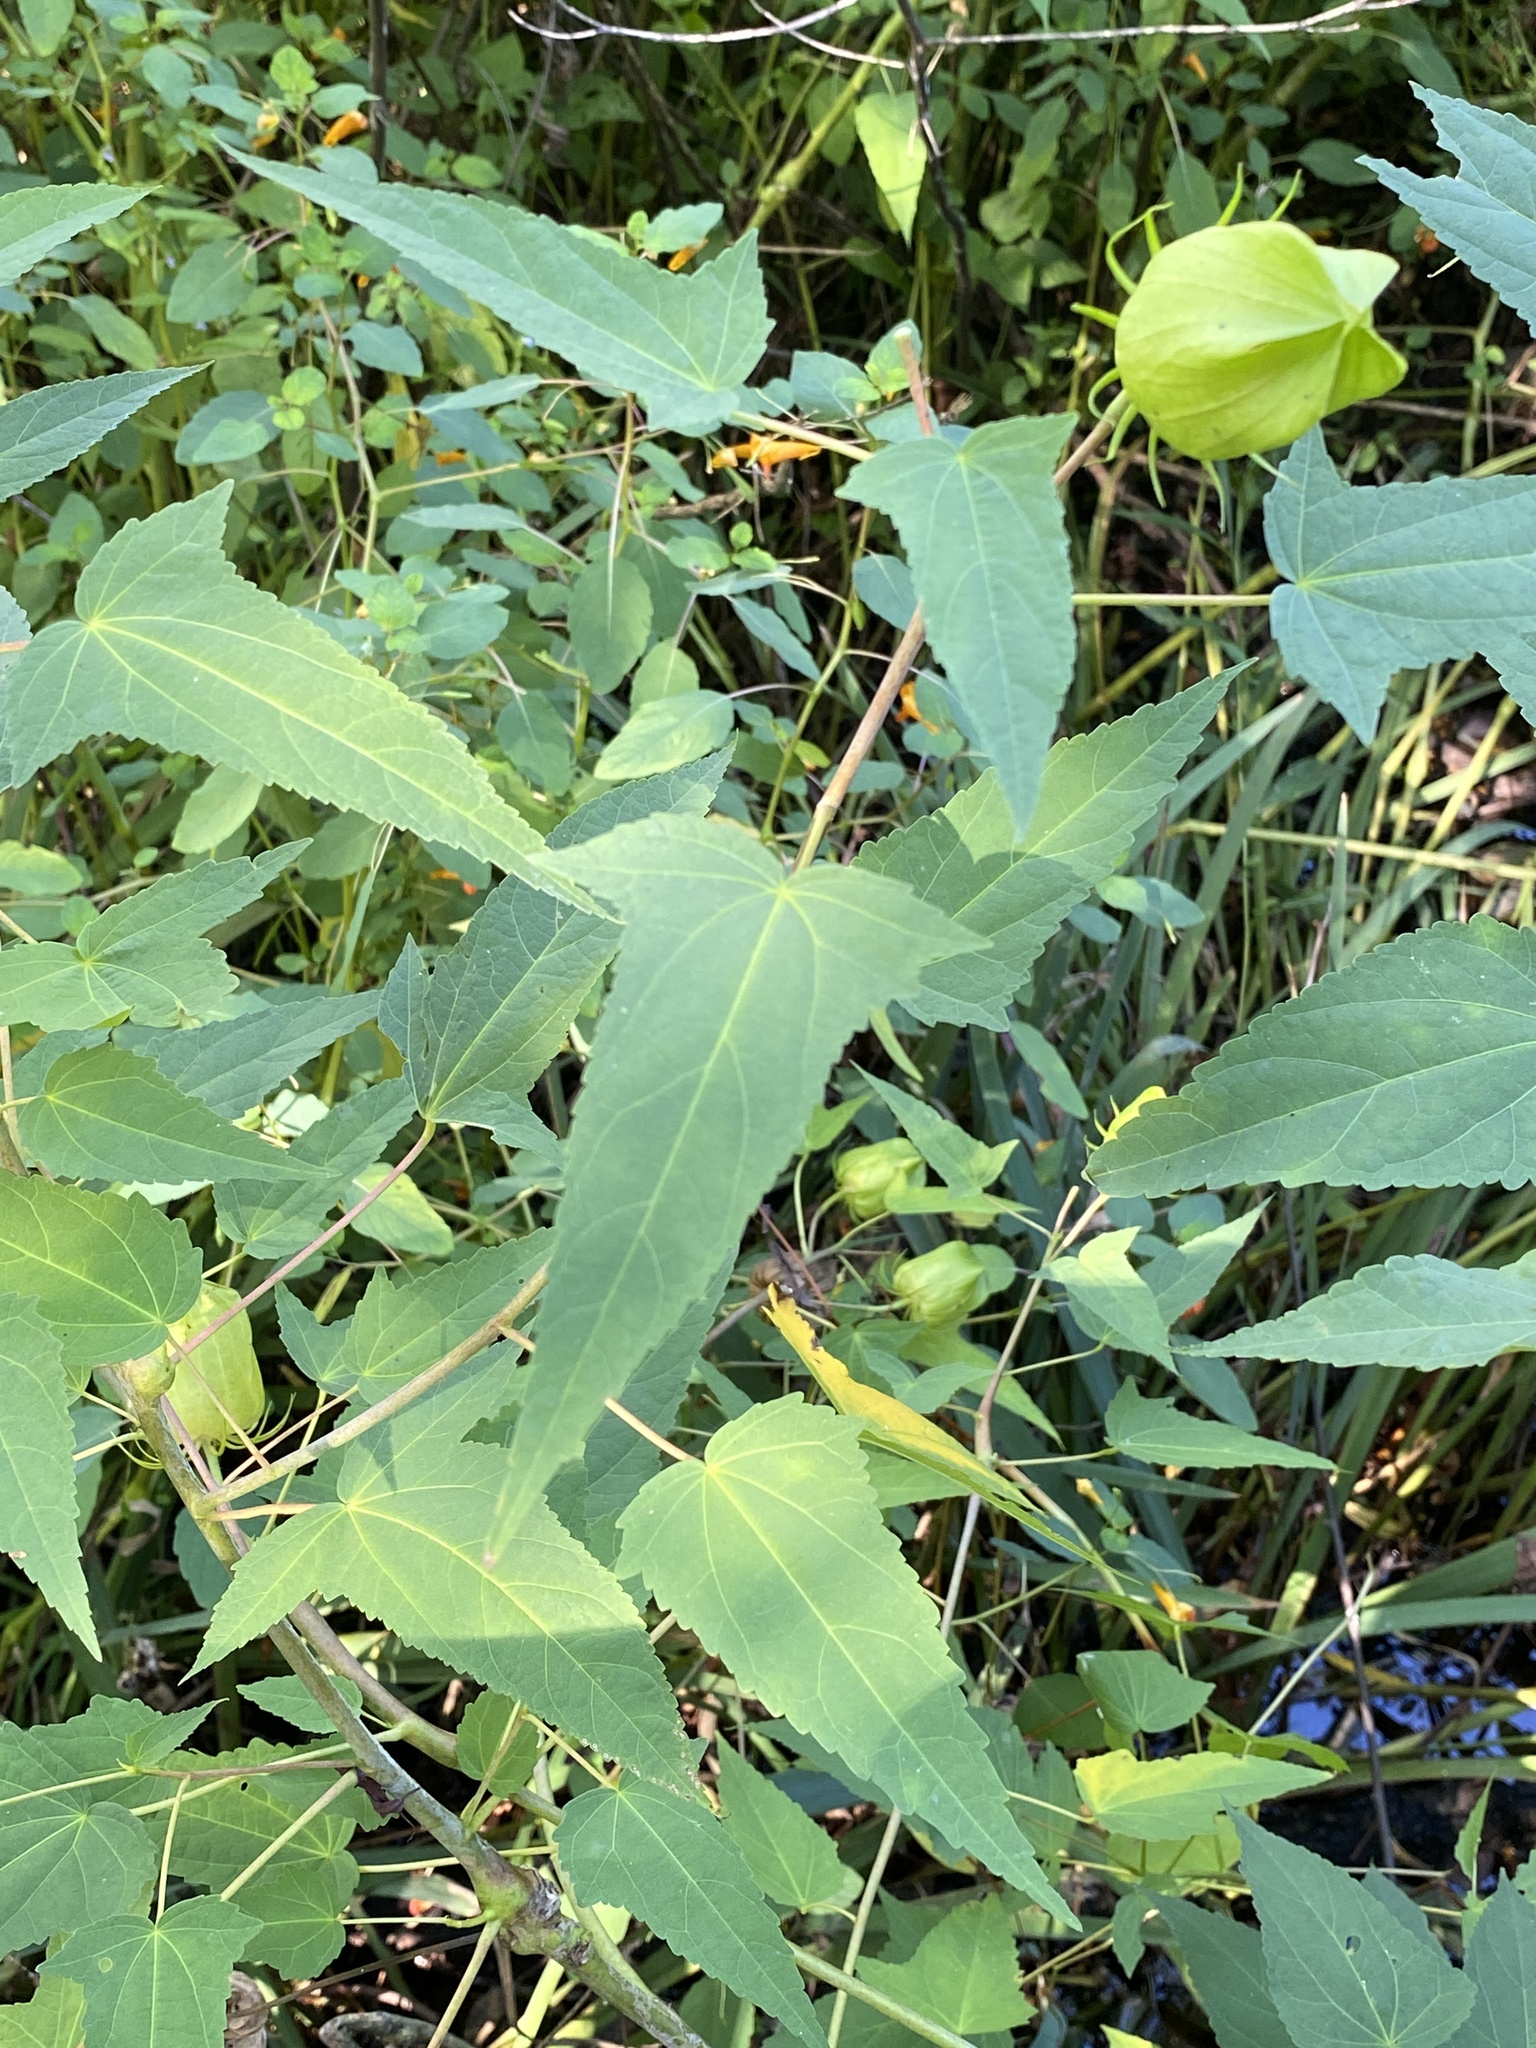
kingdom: Plantae
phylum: Tracheophyta
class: Magnoliopsida
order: Malvales
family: Malvaceae
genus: Hibiscus
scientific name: Hibiscus laevis
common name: Scarlet rose-mallow
